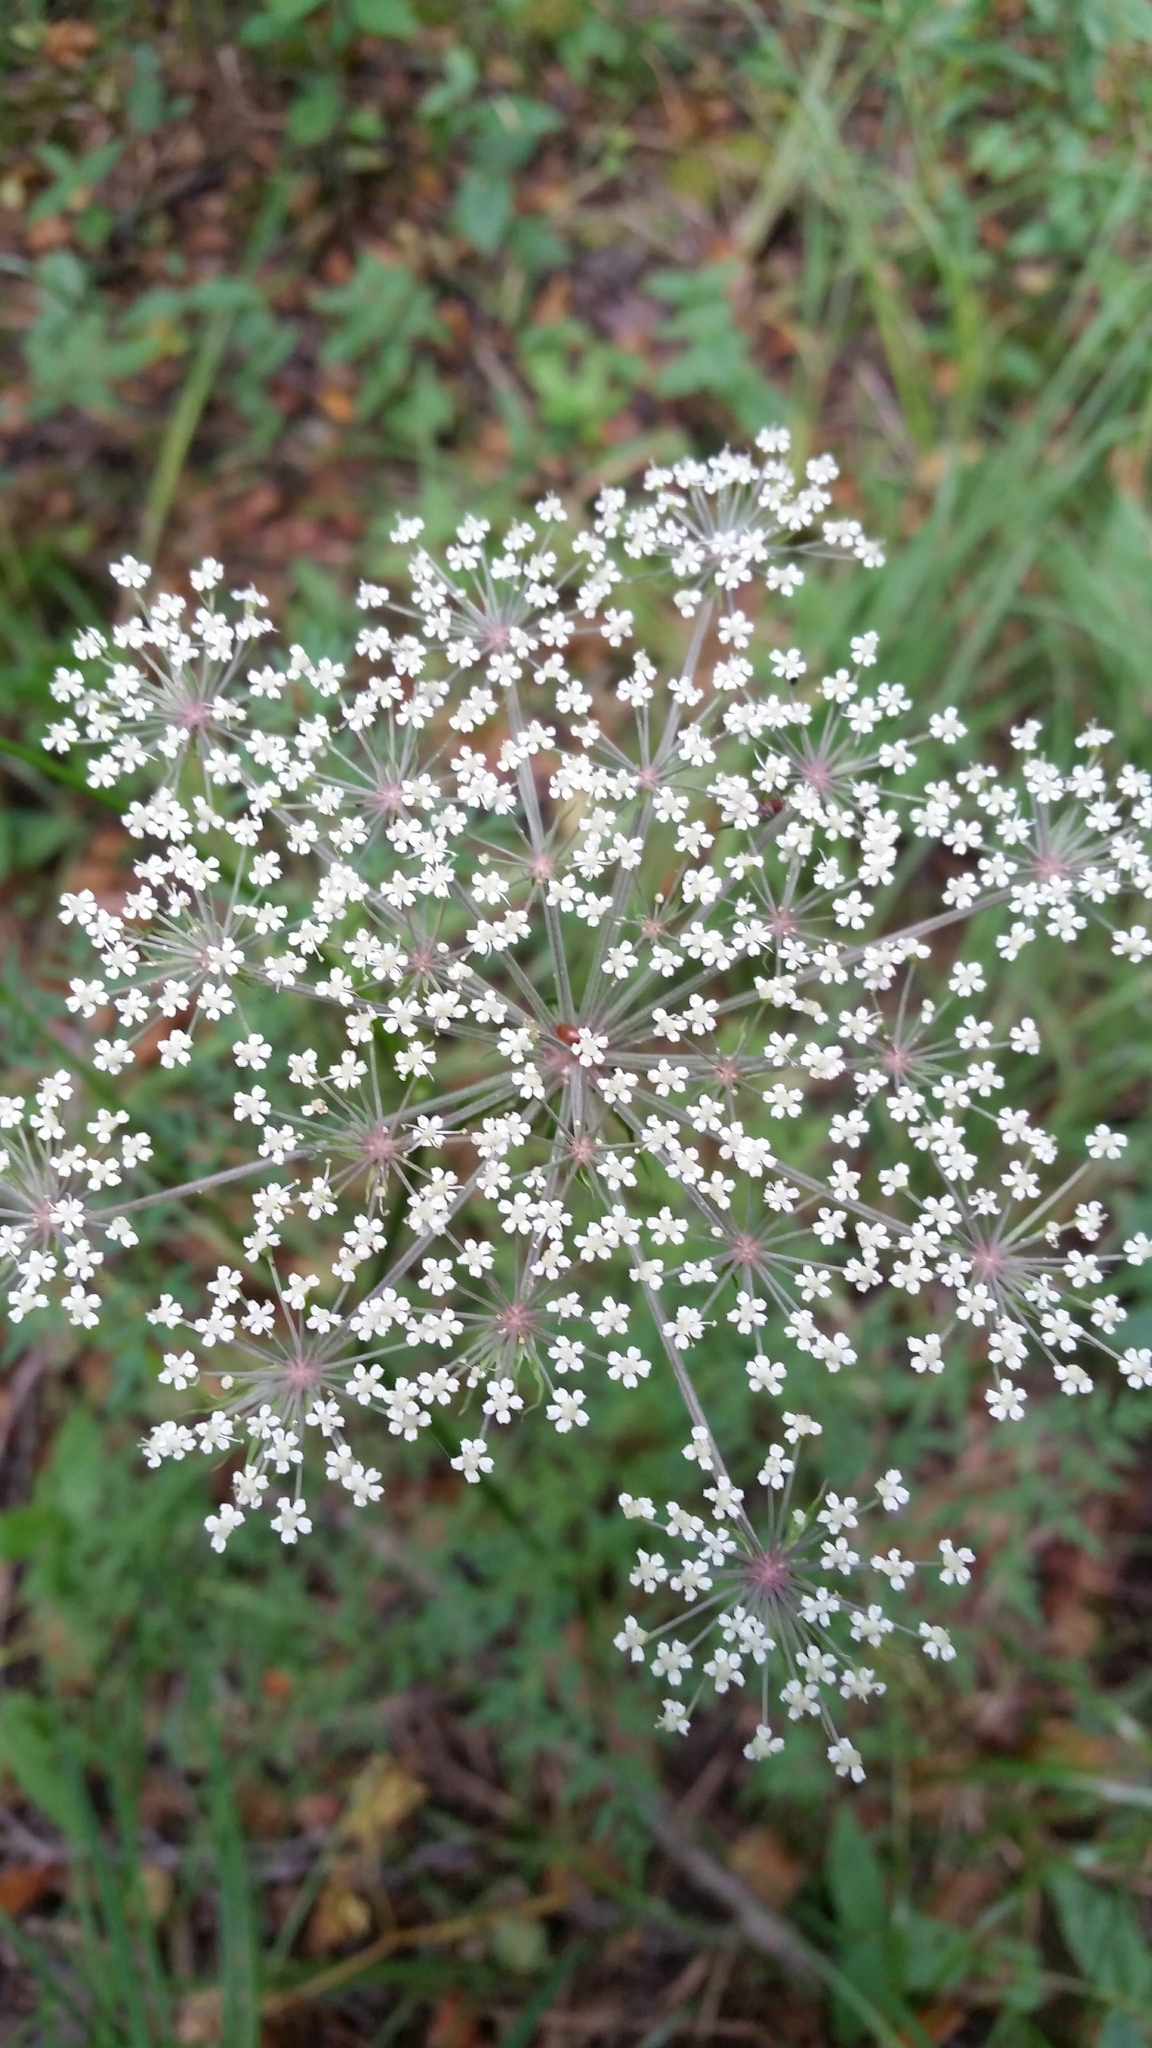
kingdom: Plantae
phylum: Tracheophyta
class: Magnoliopsida
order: Apiales
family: Apiaceae
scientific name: Apiaceae
